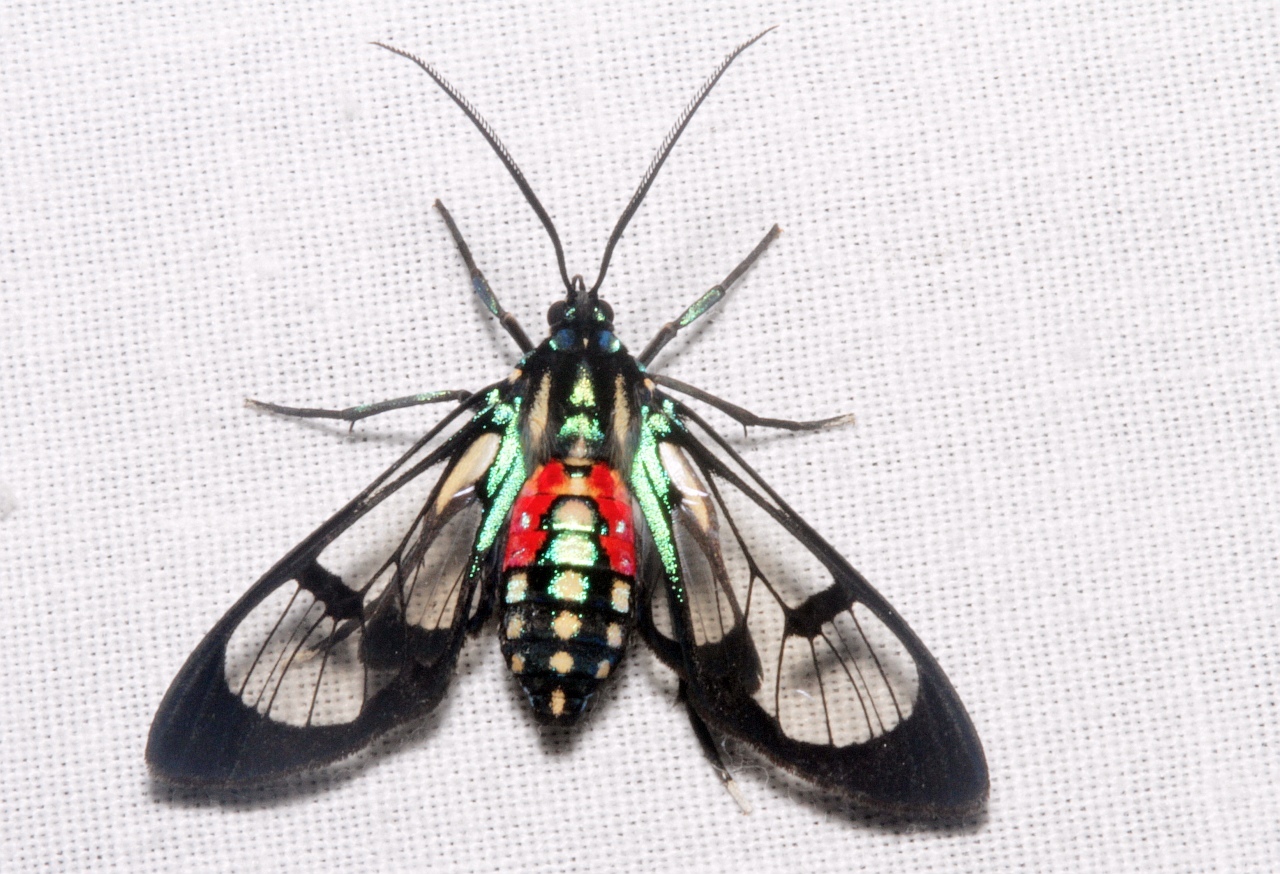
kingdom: Animalia
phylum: Arthropoda
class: Insecta
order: Lepidoptera
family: Erebidae
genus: Poecilosoma
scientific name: Poecilosoma eone
